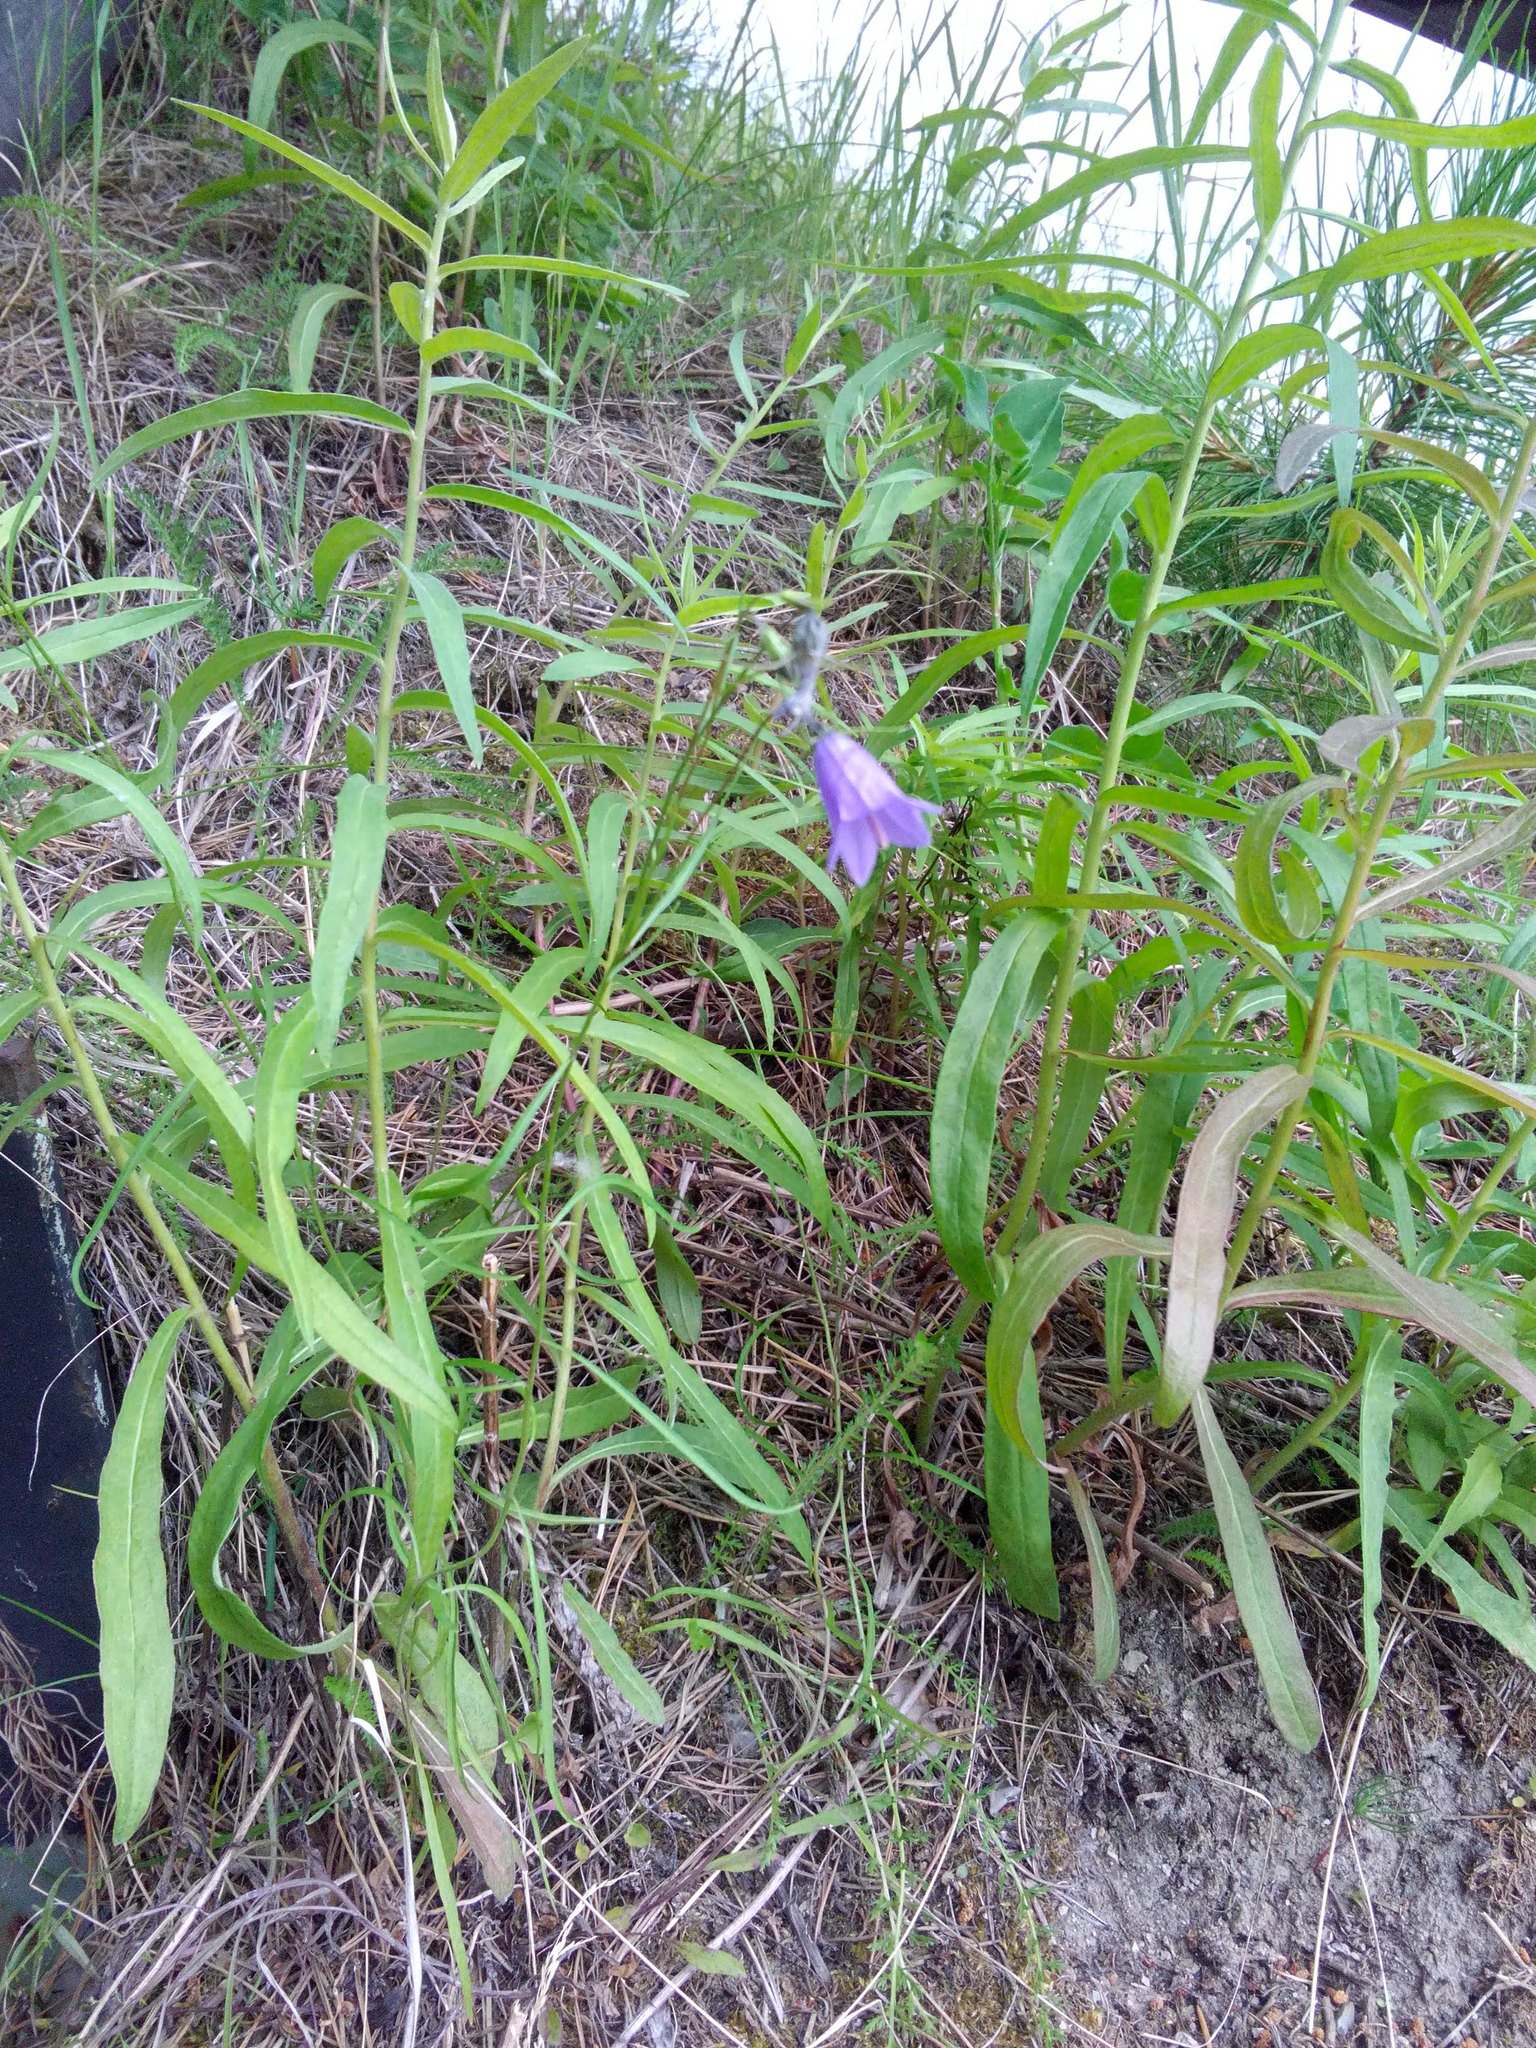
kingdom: Plantae
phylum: Tracheophyta
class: Magnoliopsida
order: Asterales
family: Campanulaceae
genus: Campanula
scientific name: Campanula rotundifolia
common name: Harebell
